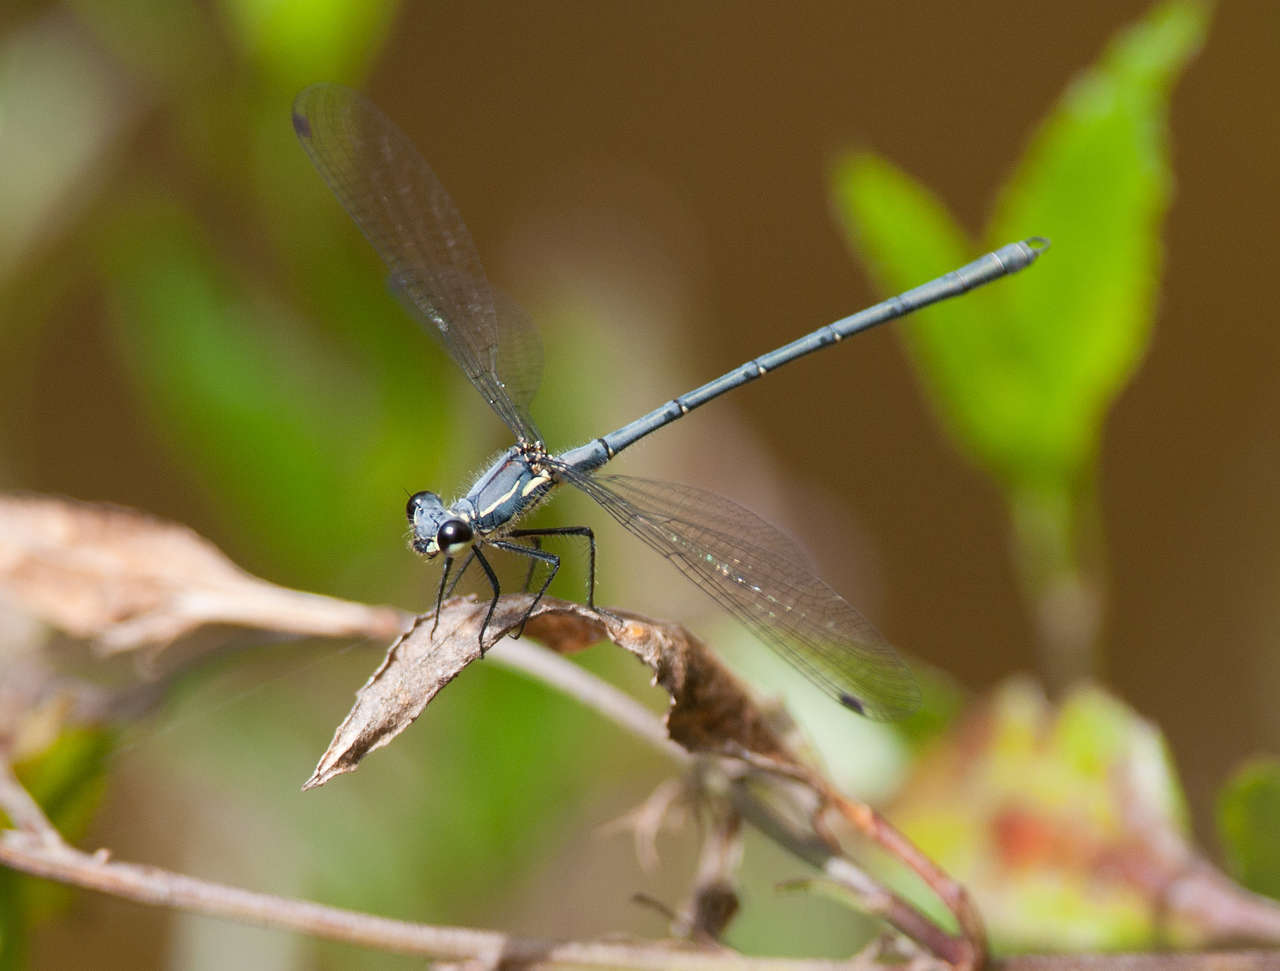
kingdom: Animalia
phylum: Arthropoda
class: Insecta
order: Odonata
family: Argiolestidae
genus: Griseargiolestes
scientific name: Griseargiolestes intermedius
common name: Alpine flatwing
